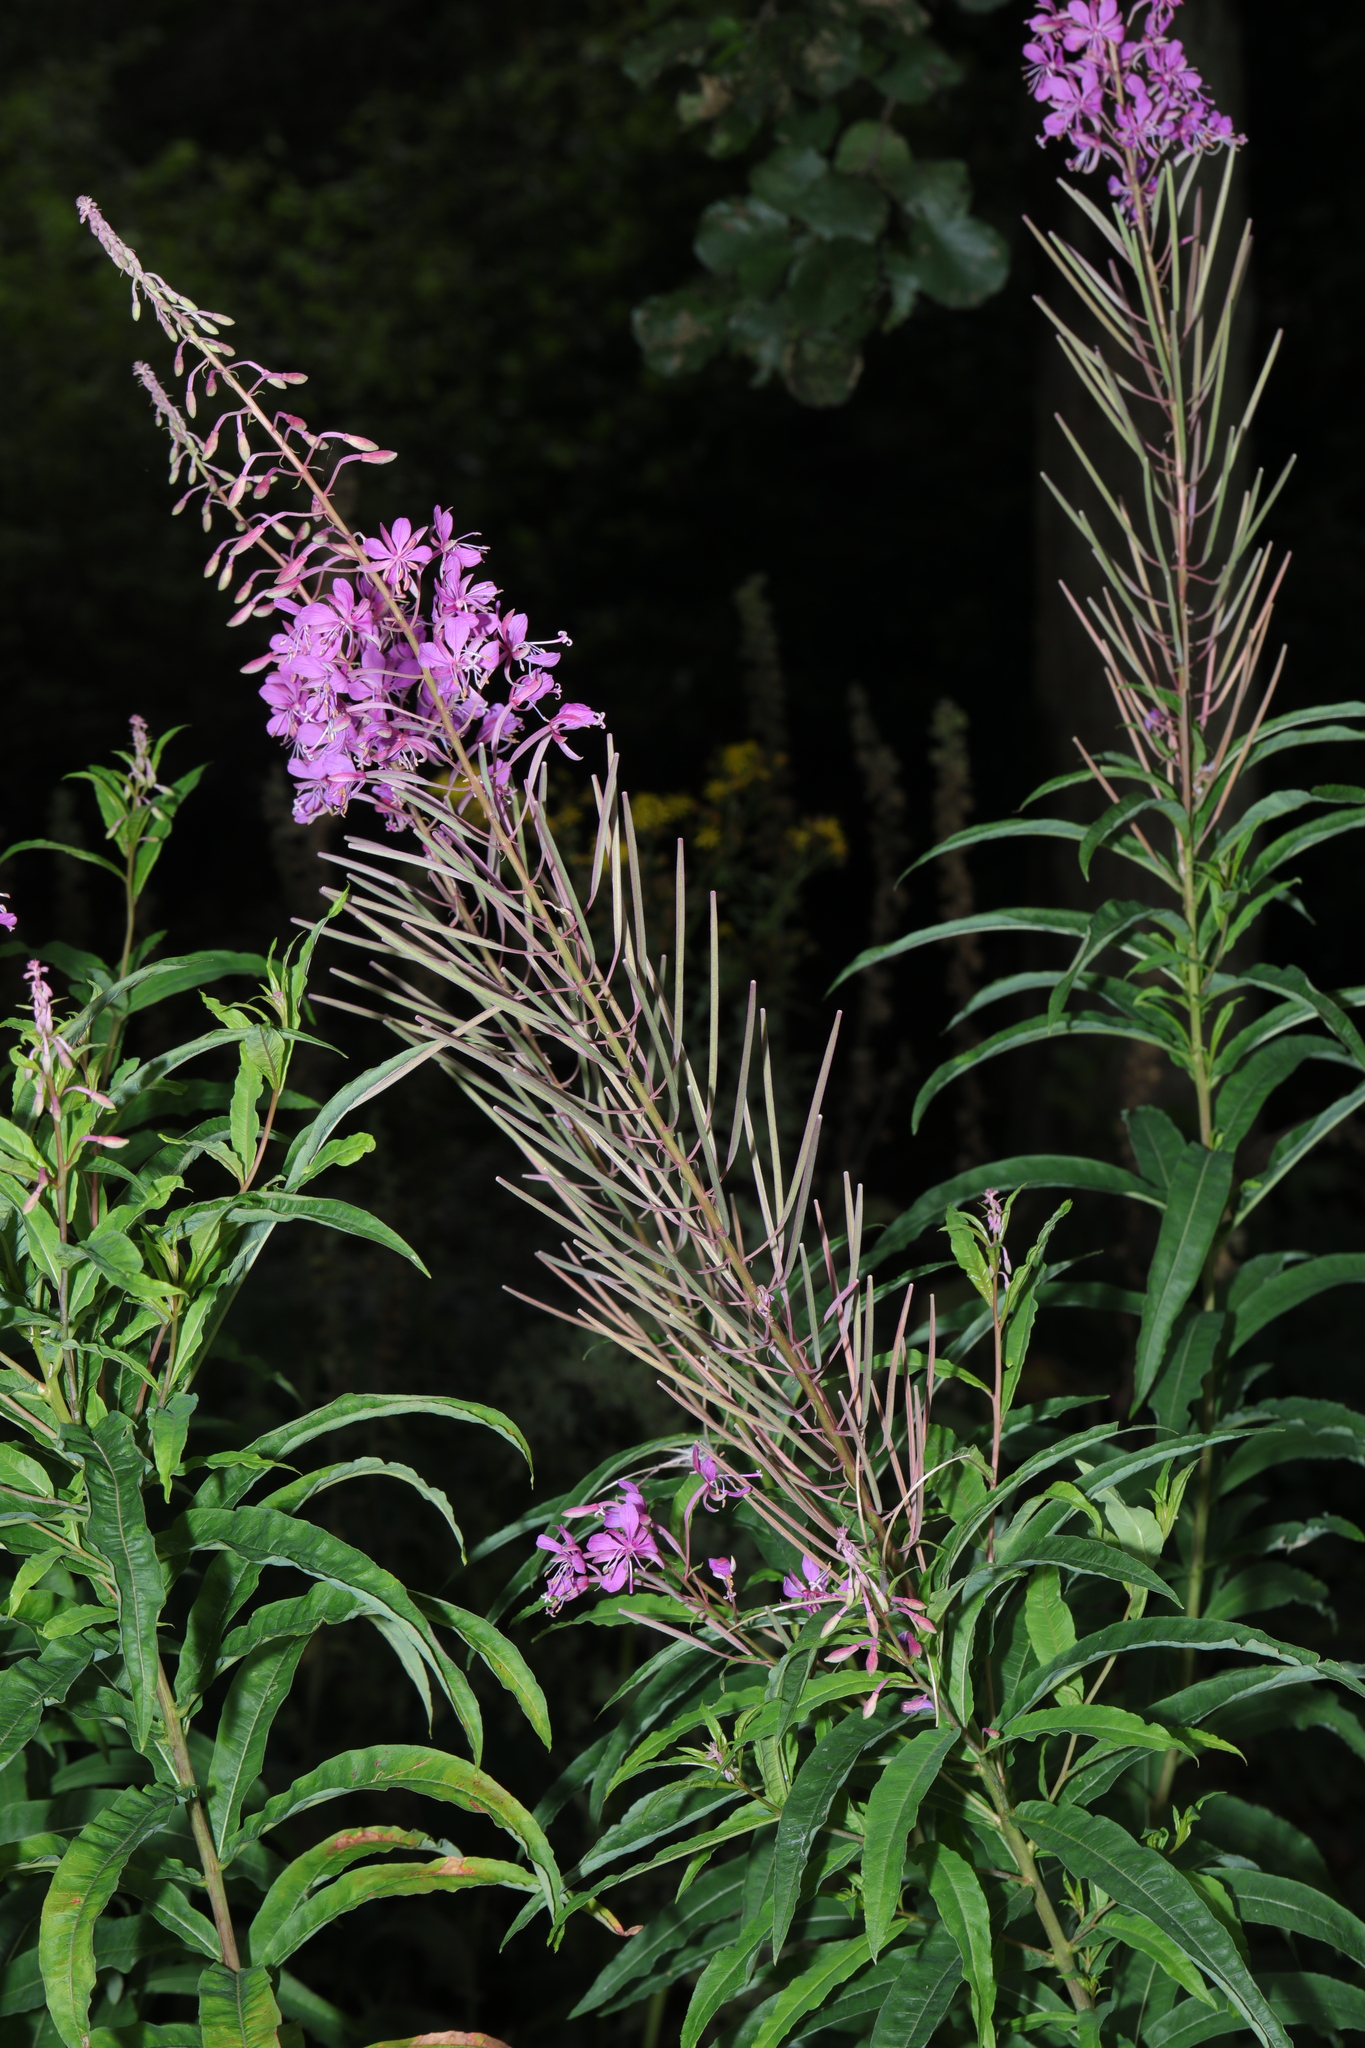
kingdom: Plantae
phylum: Tracheophyta
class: Magnoliopsida
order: Myrtales
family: Onagraceae
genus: Chamaenerion
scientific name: Chamaenerion angustifolium
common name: Fireweed
